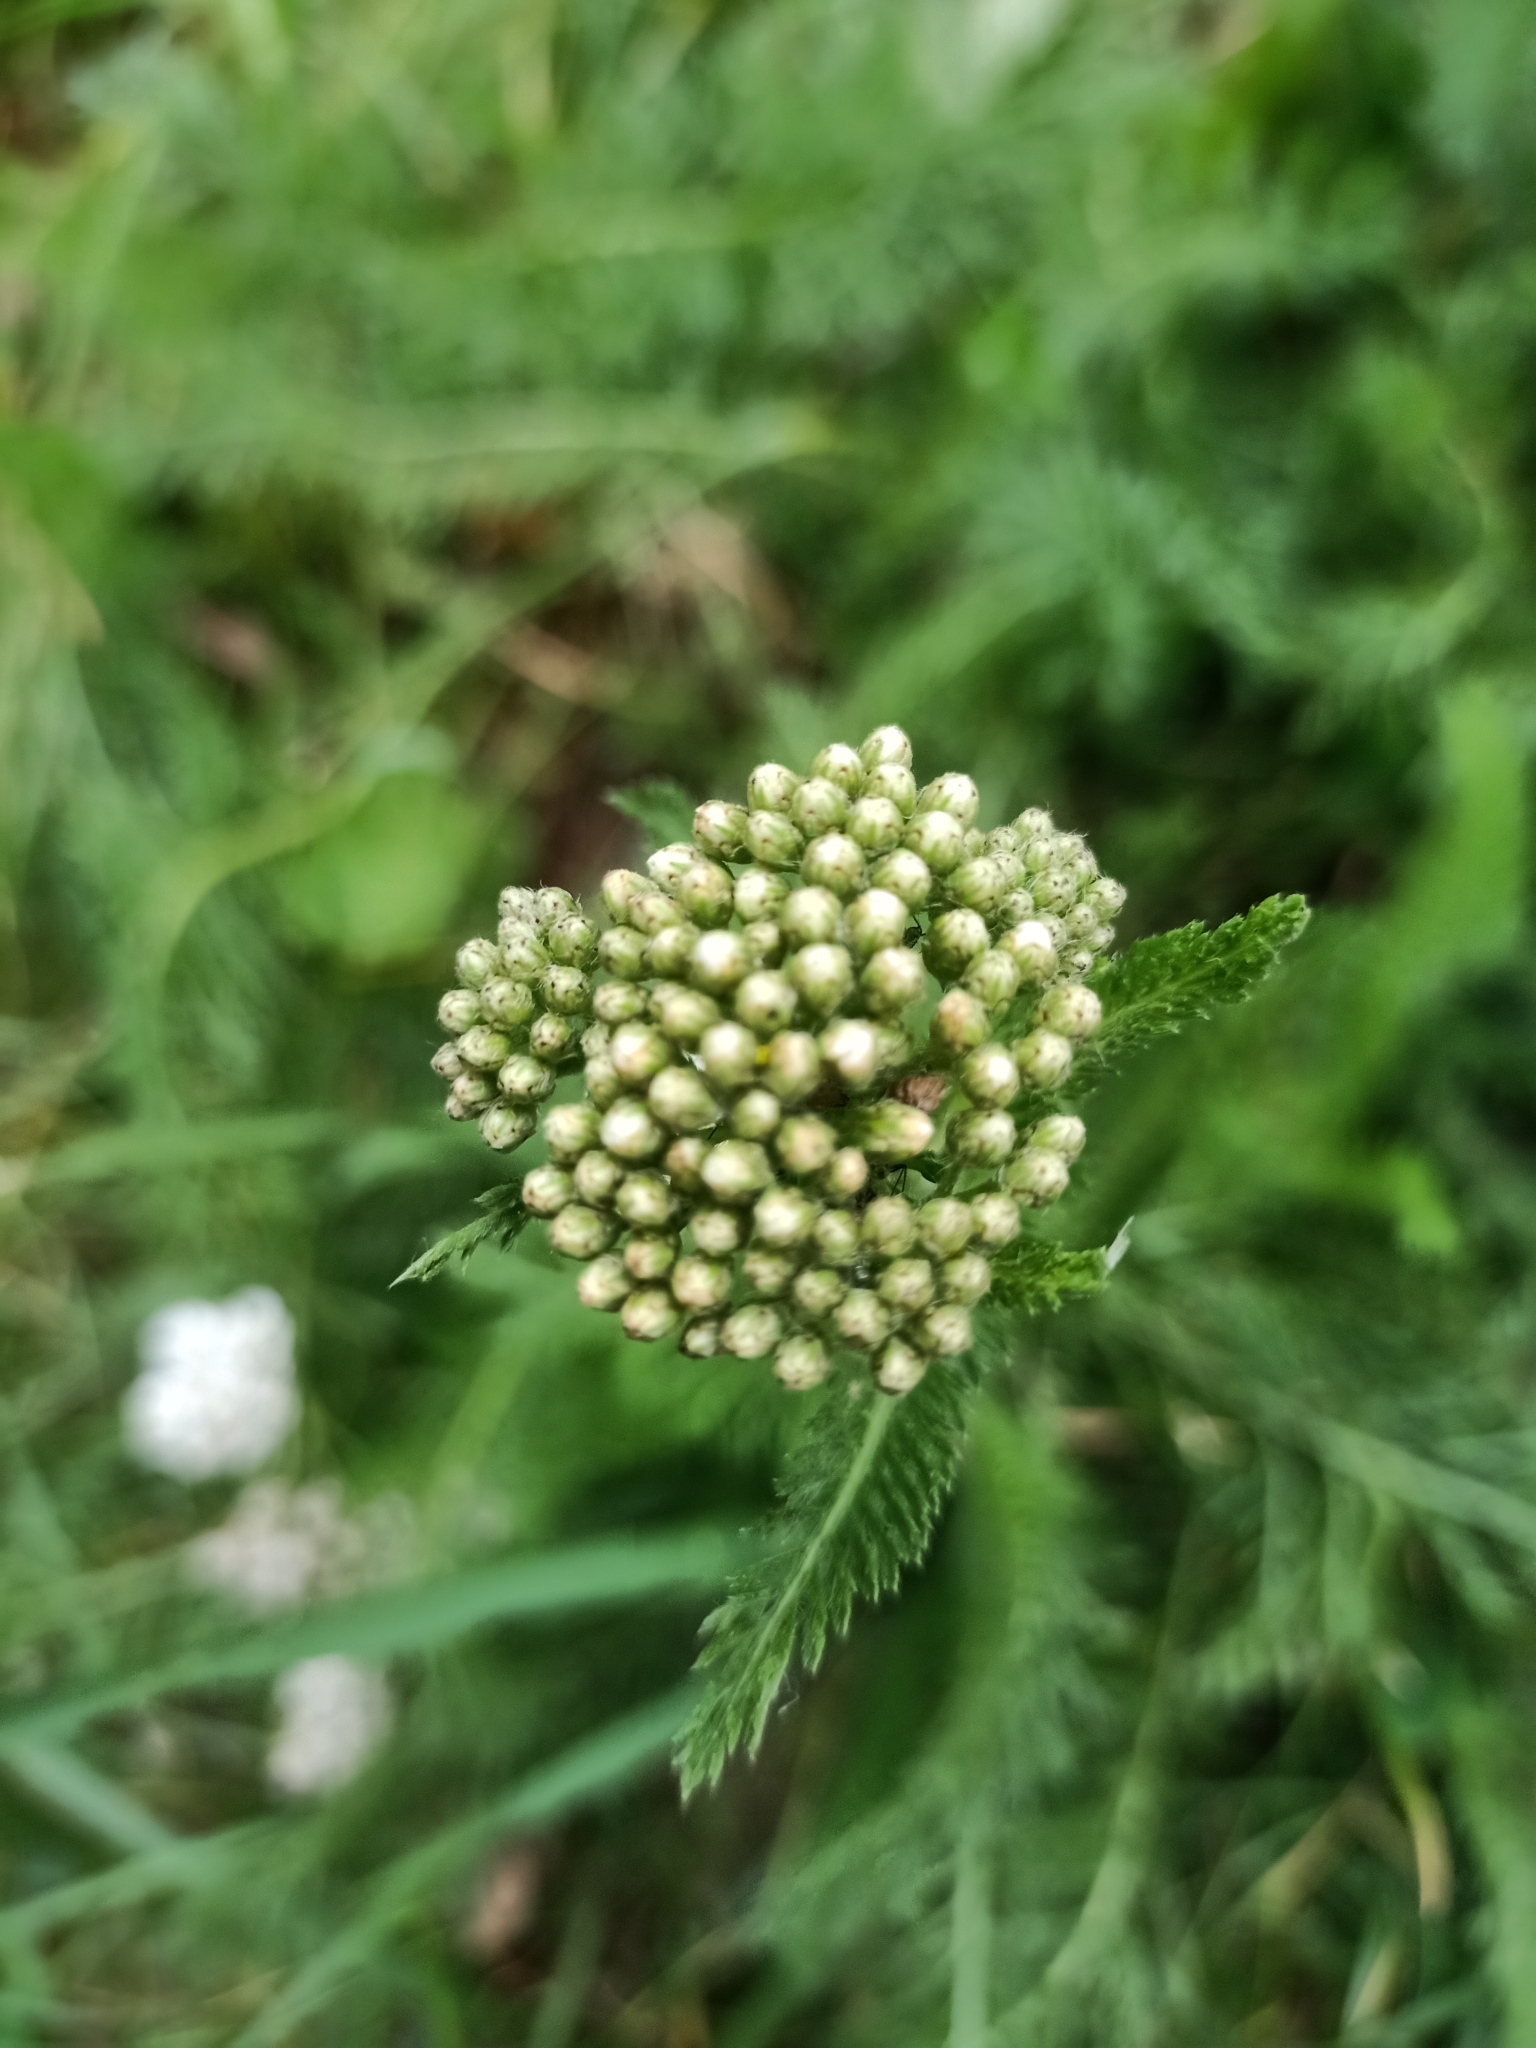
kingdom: Plantae
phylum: Tracheophyta
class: Magnoliopsida
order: Asterales
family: Asteraceae
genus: Achillea
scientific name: Achillea millefolium
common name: Yarrow
